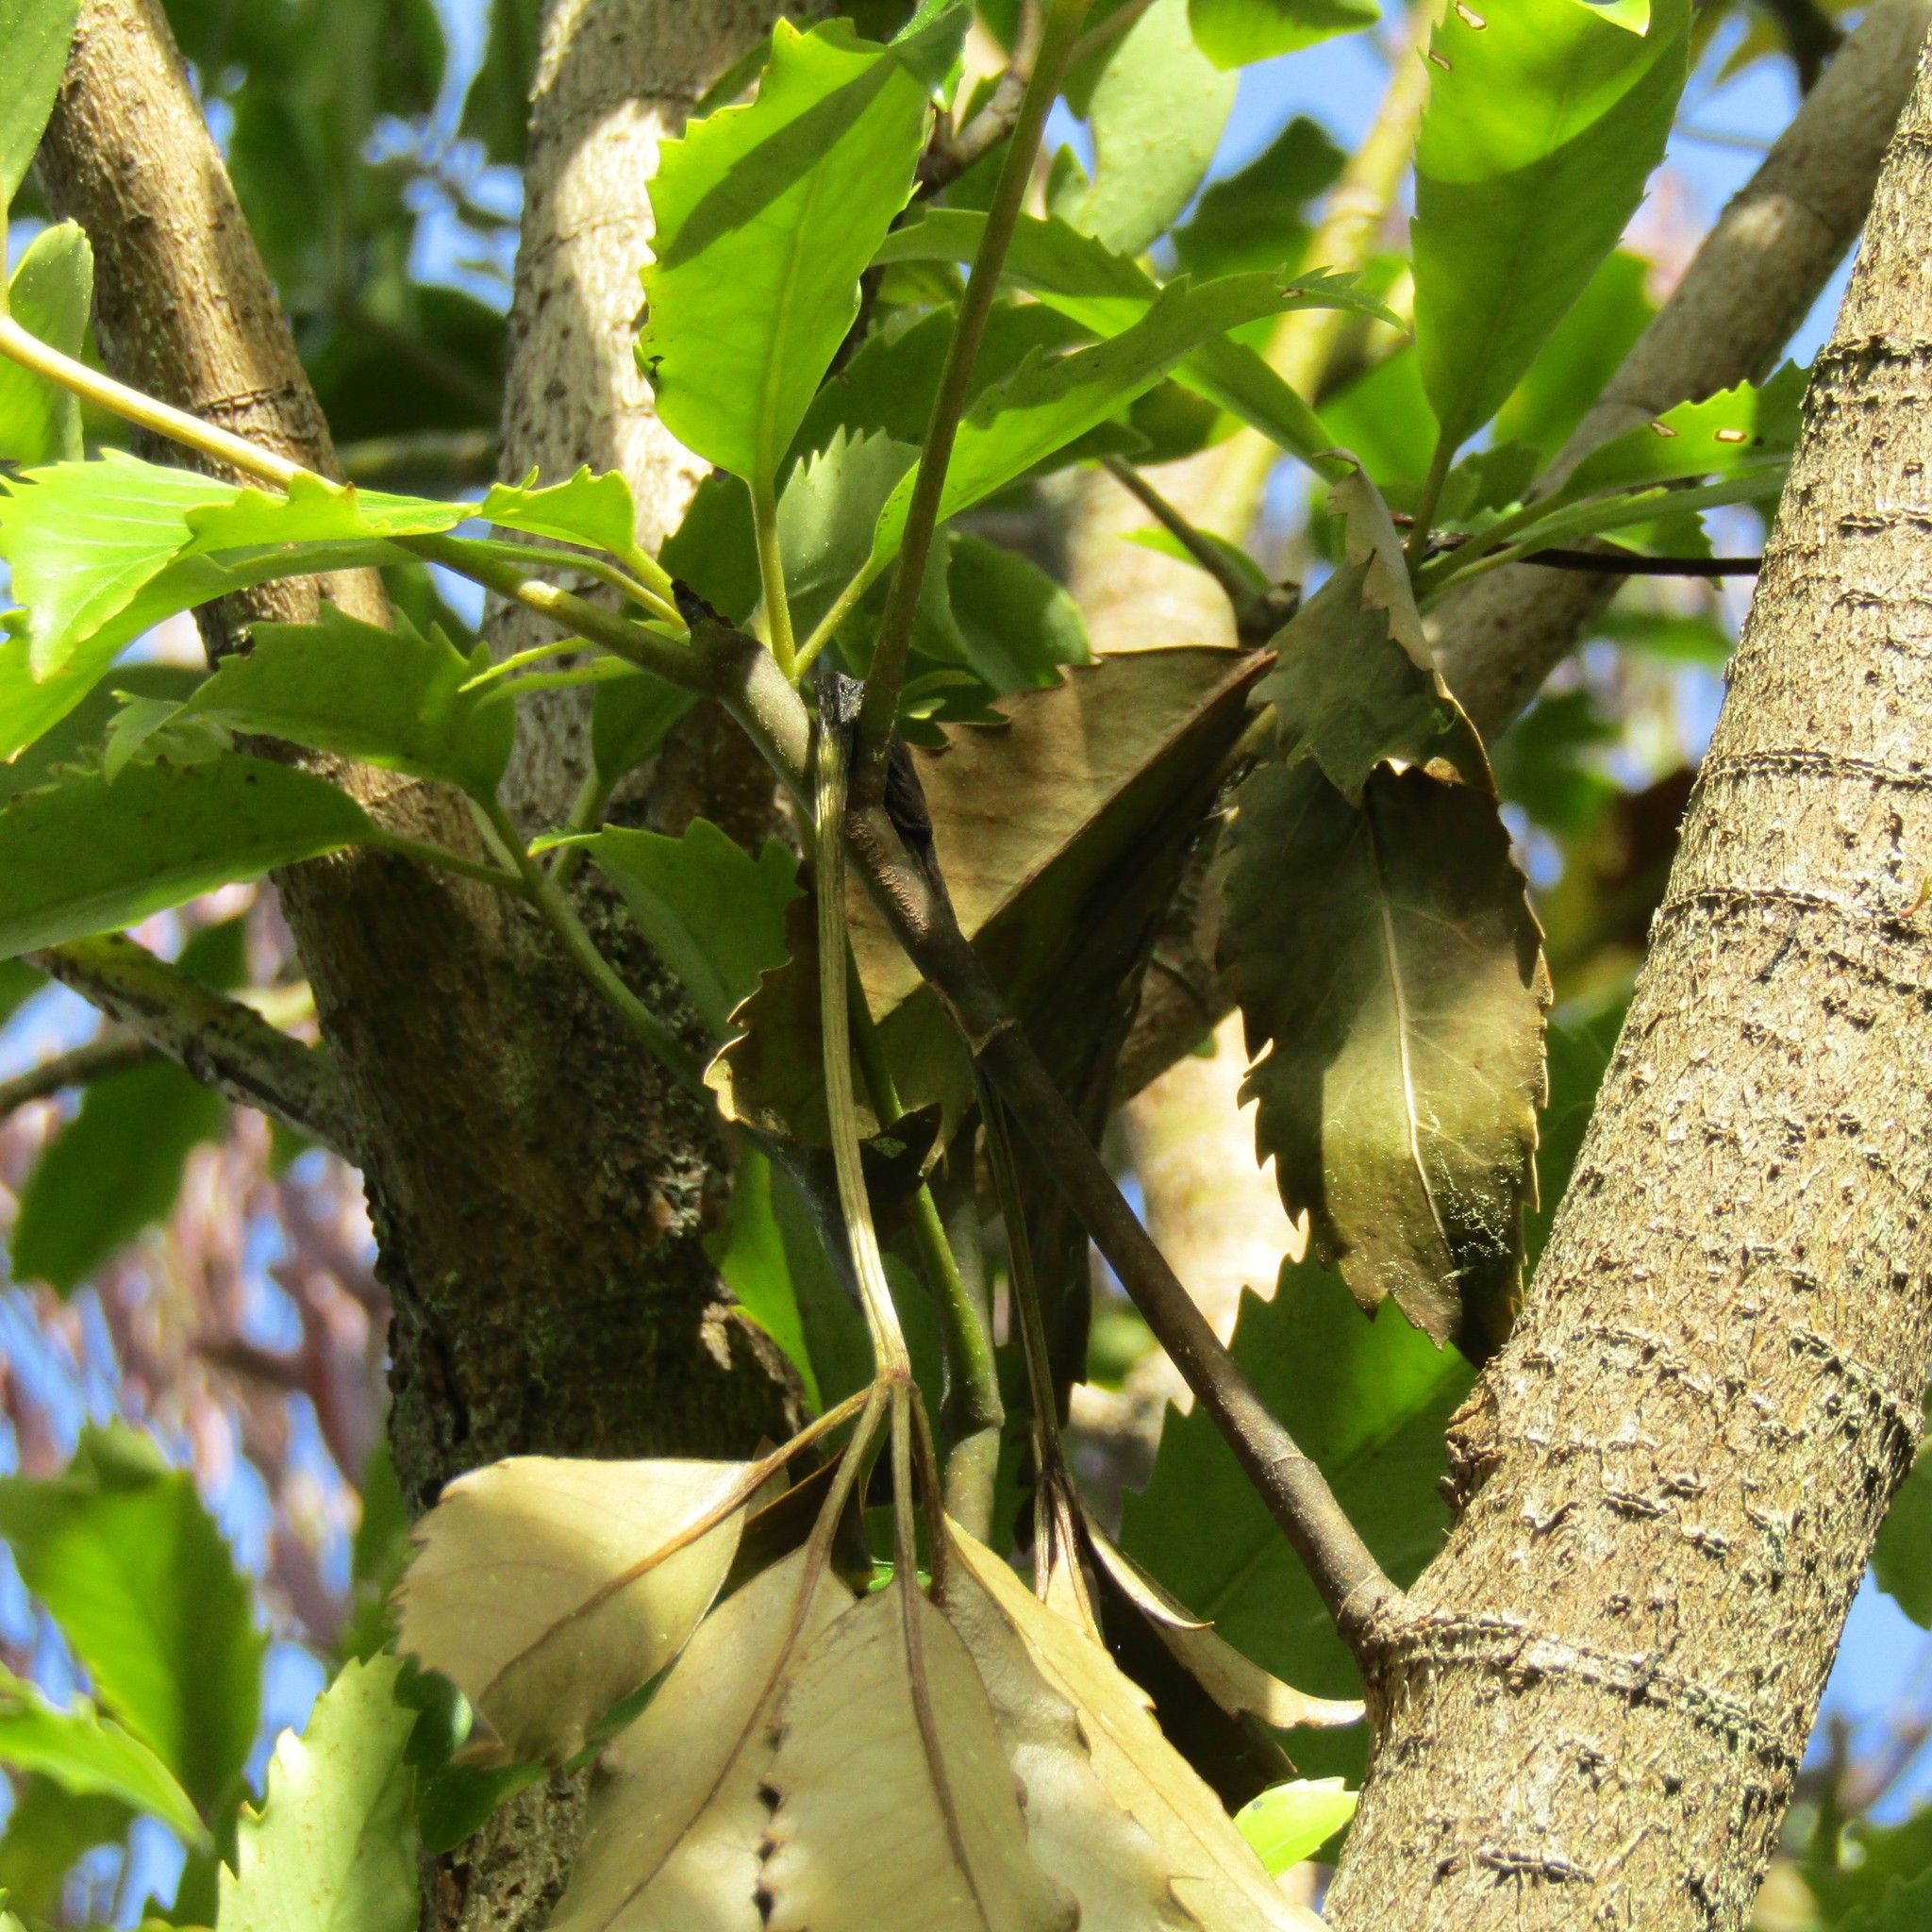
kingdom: Animalia
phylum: Chordata
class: Mammalia
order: Diprotodontia
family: Phalangeridae
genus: Trichosurus
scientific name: Trichosurus vulpecula
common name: Common brushtail
